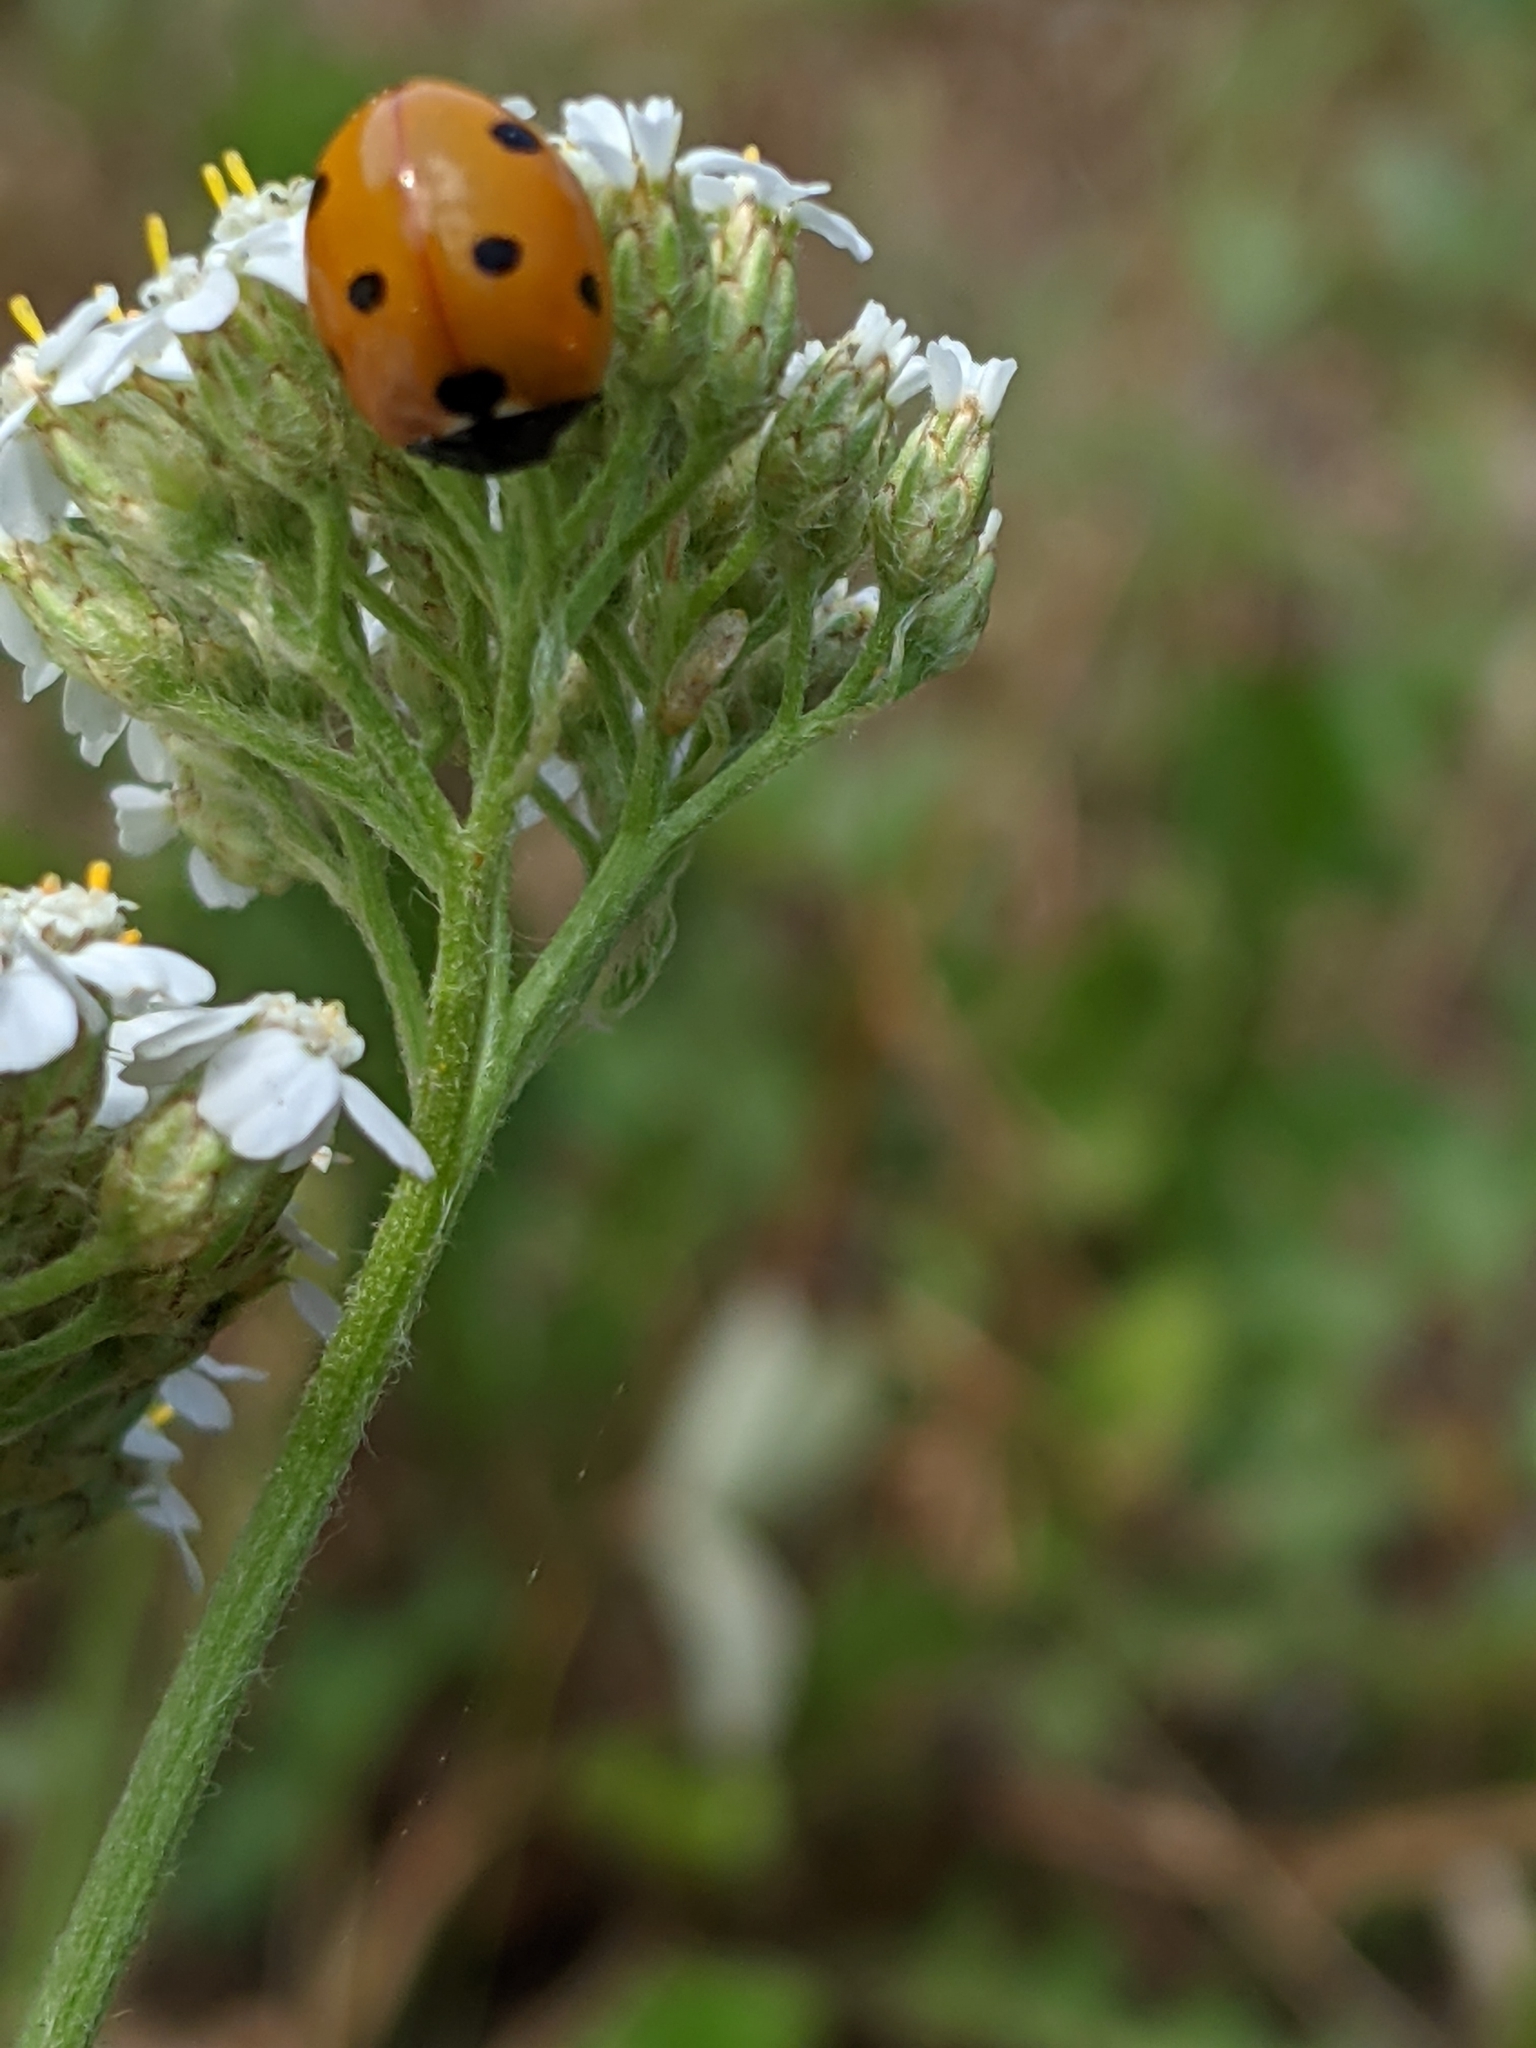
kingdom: Animalia
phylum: Arthropoda
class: Insecta
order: Coleoptera
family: Coccinellidae
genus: Coccinella
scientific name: Coccinella septempunctata
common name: Sevenspotted lady beetle
